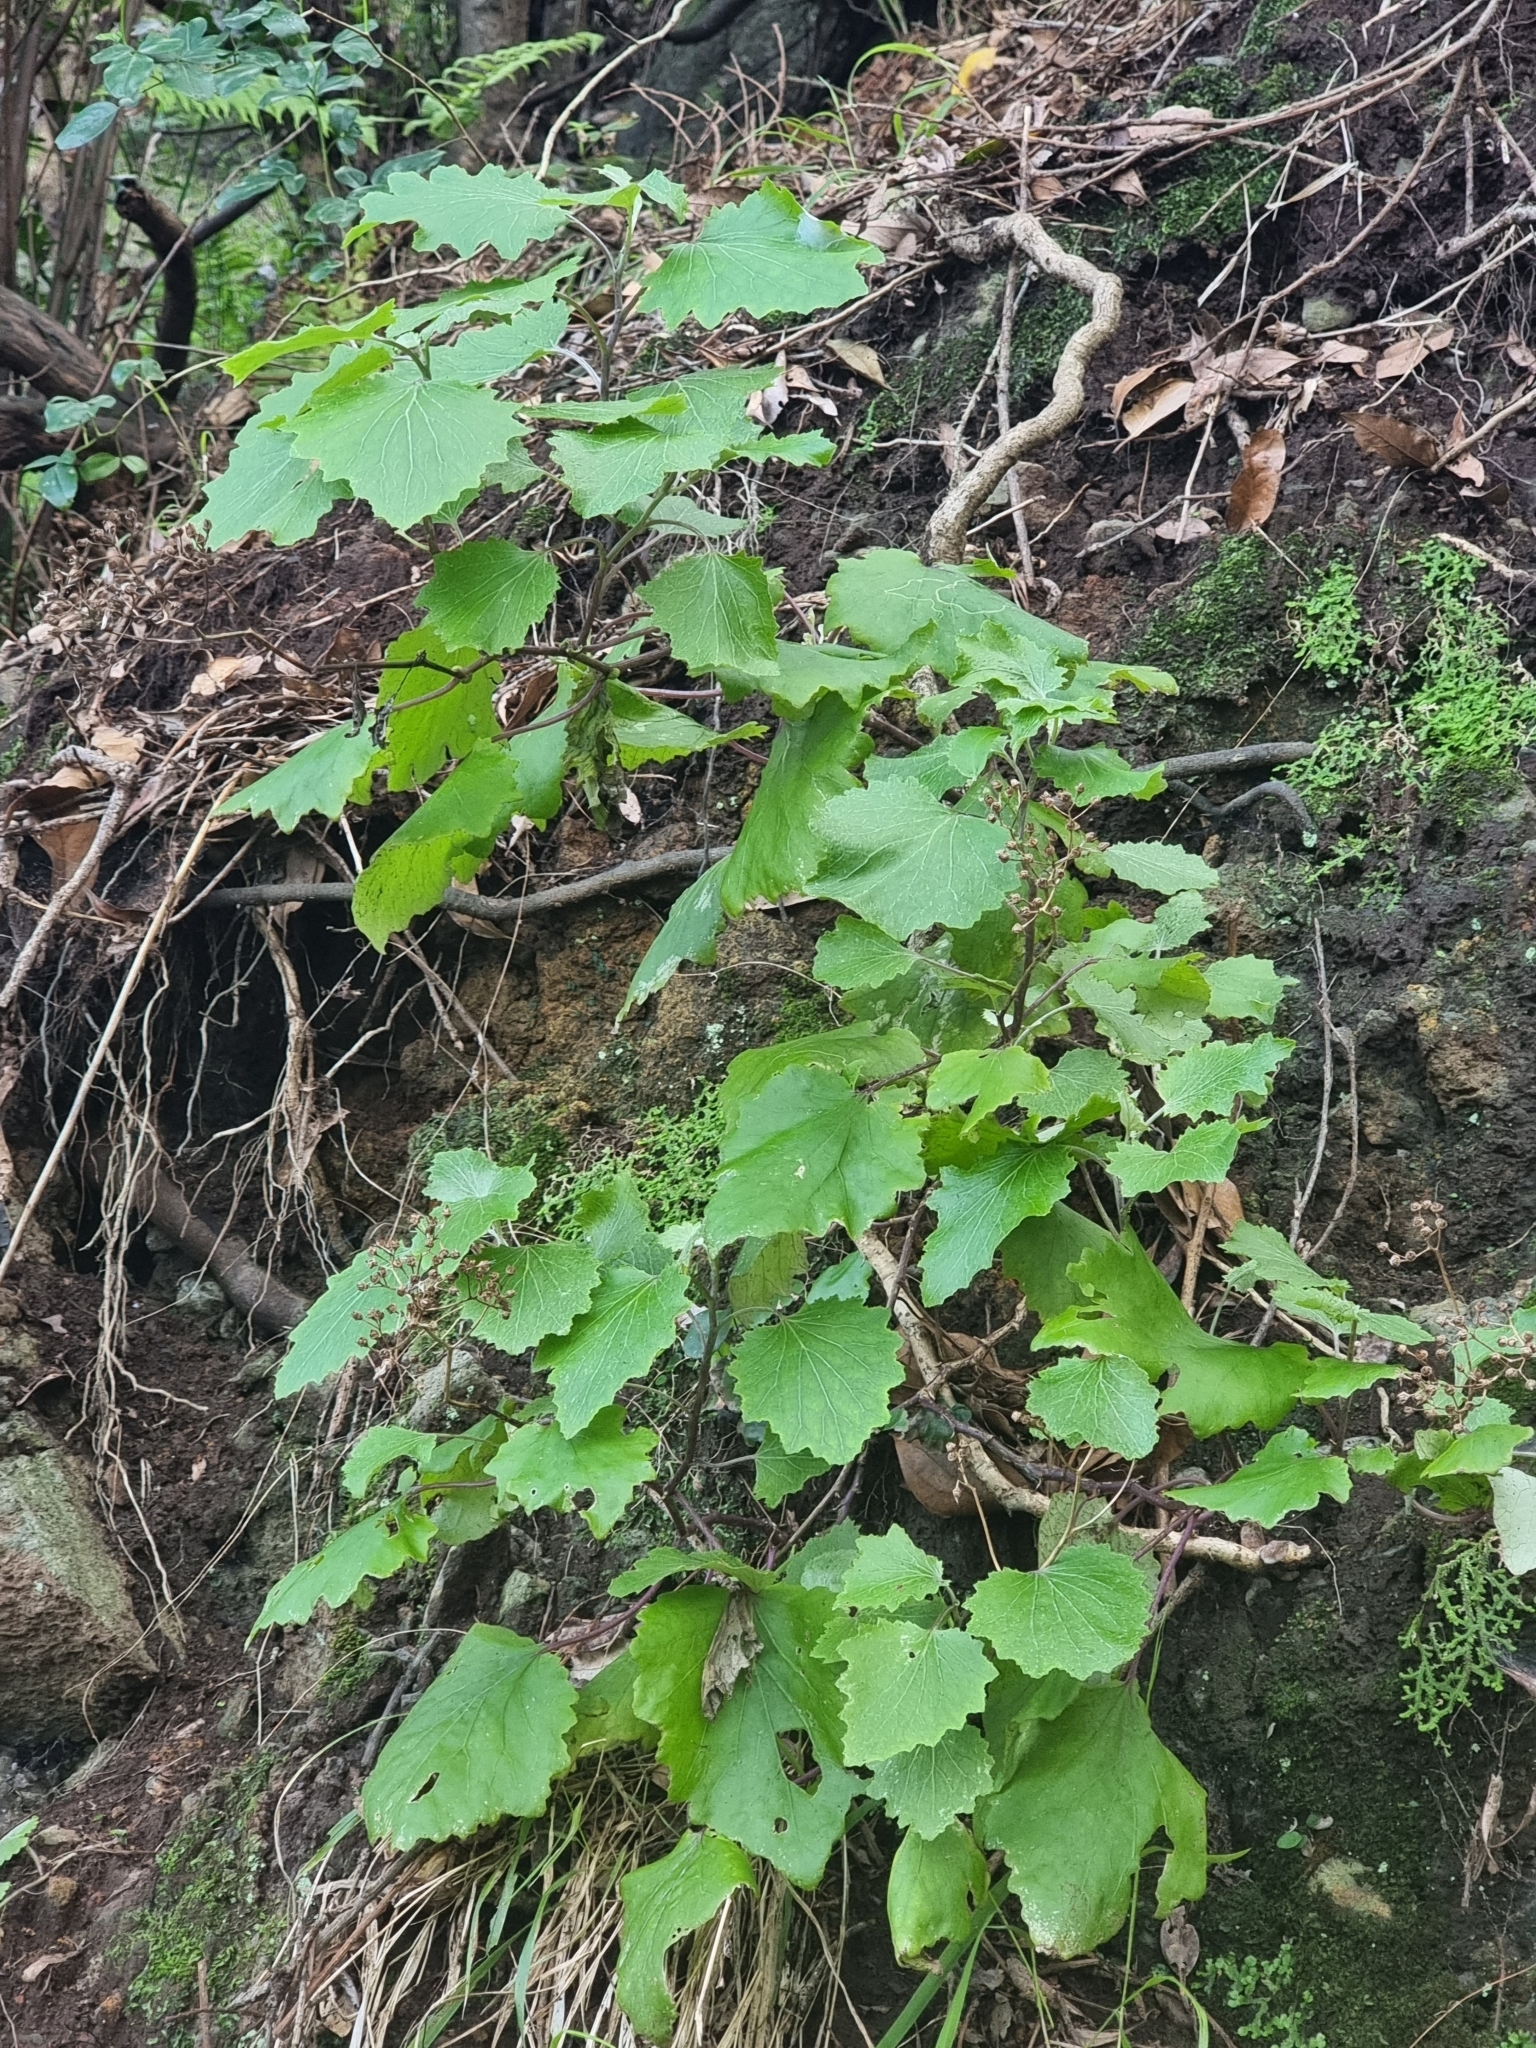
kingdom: Plantae
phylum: Tracheophyta
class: Magnoliopsida
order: Asterales
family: Asteraceae
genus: Pericallis
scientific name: Pericallis aurita
